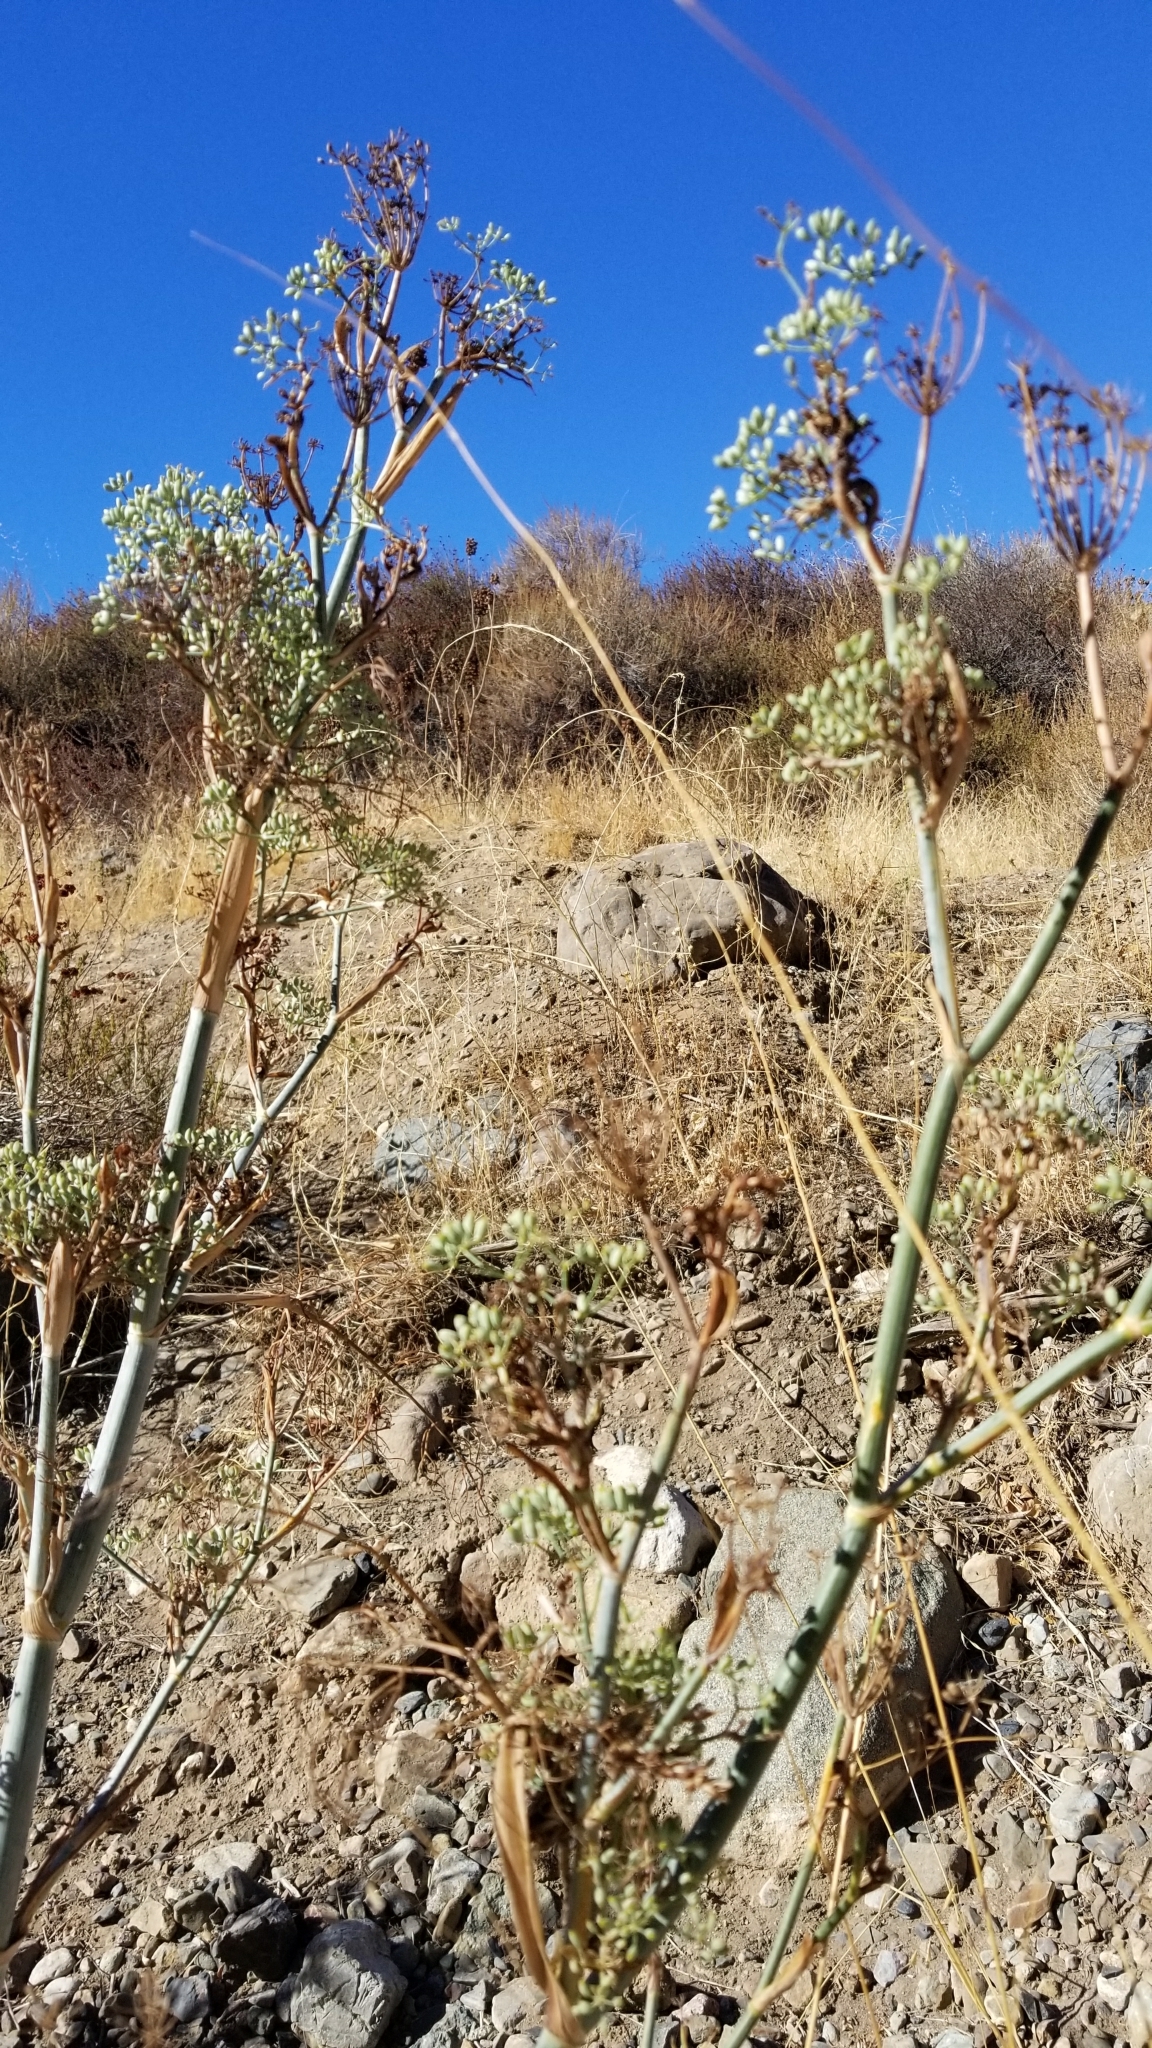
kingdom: Plantae
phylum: Tracheophyta
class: Magnoliopsida
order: Apiales
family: Apiaceae
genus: Foeniculum
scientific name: Foeniculum vulgare
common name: Fennel
